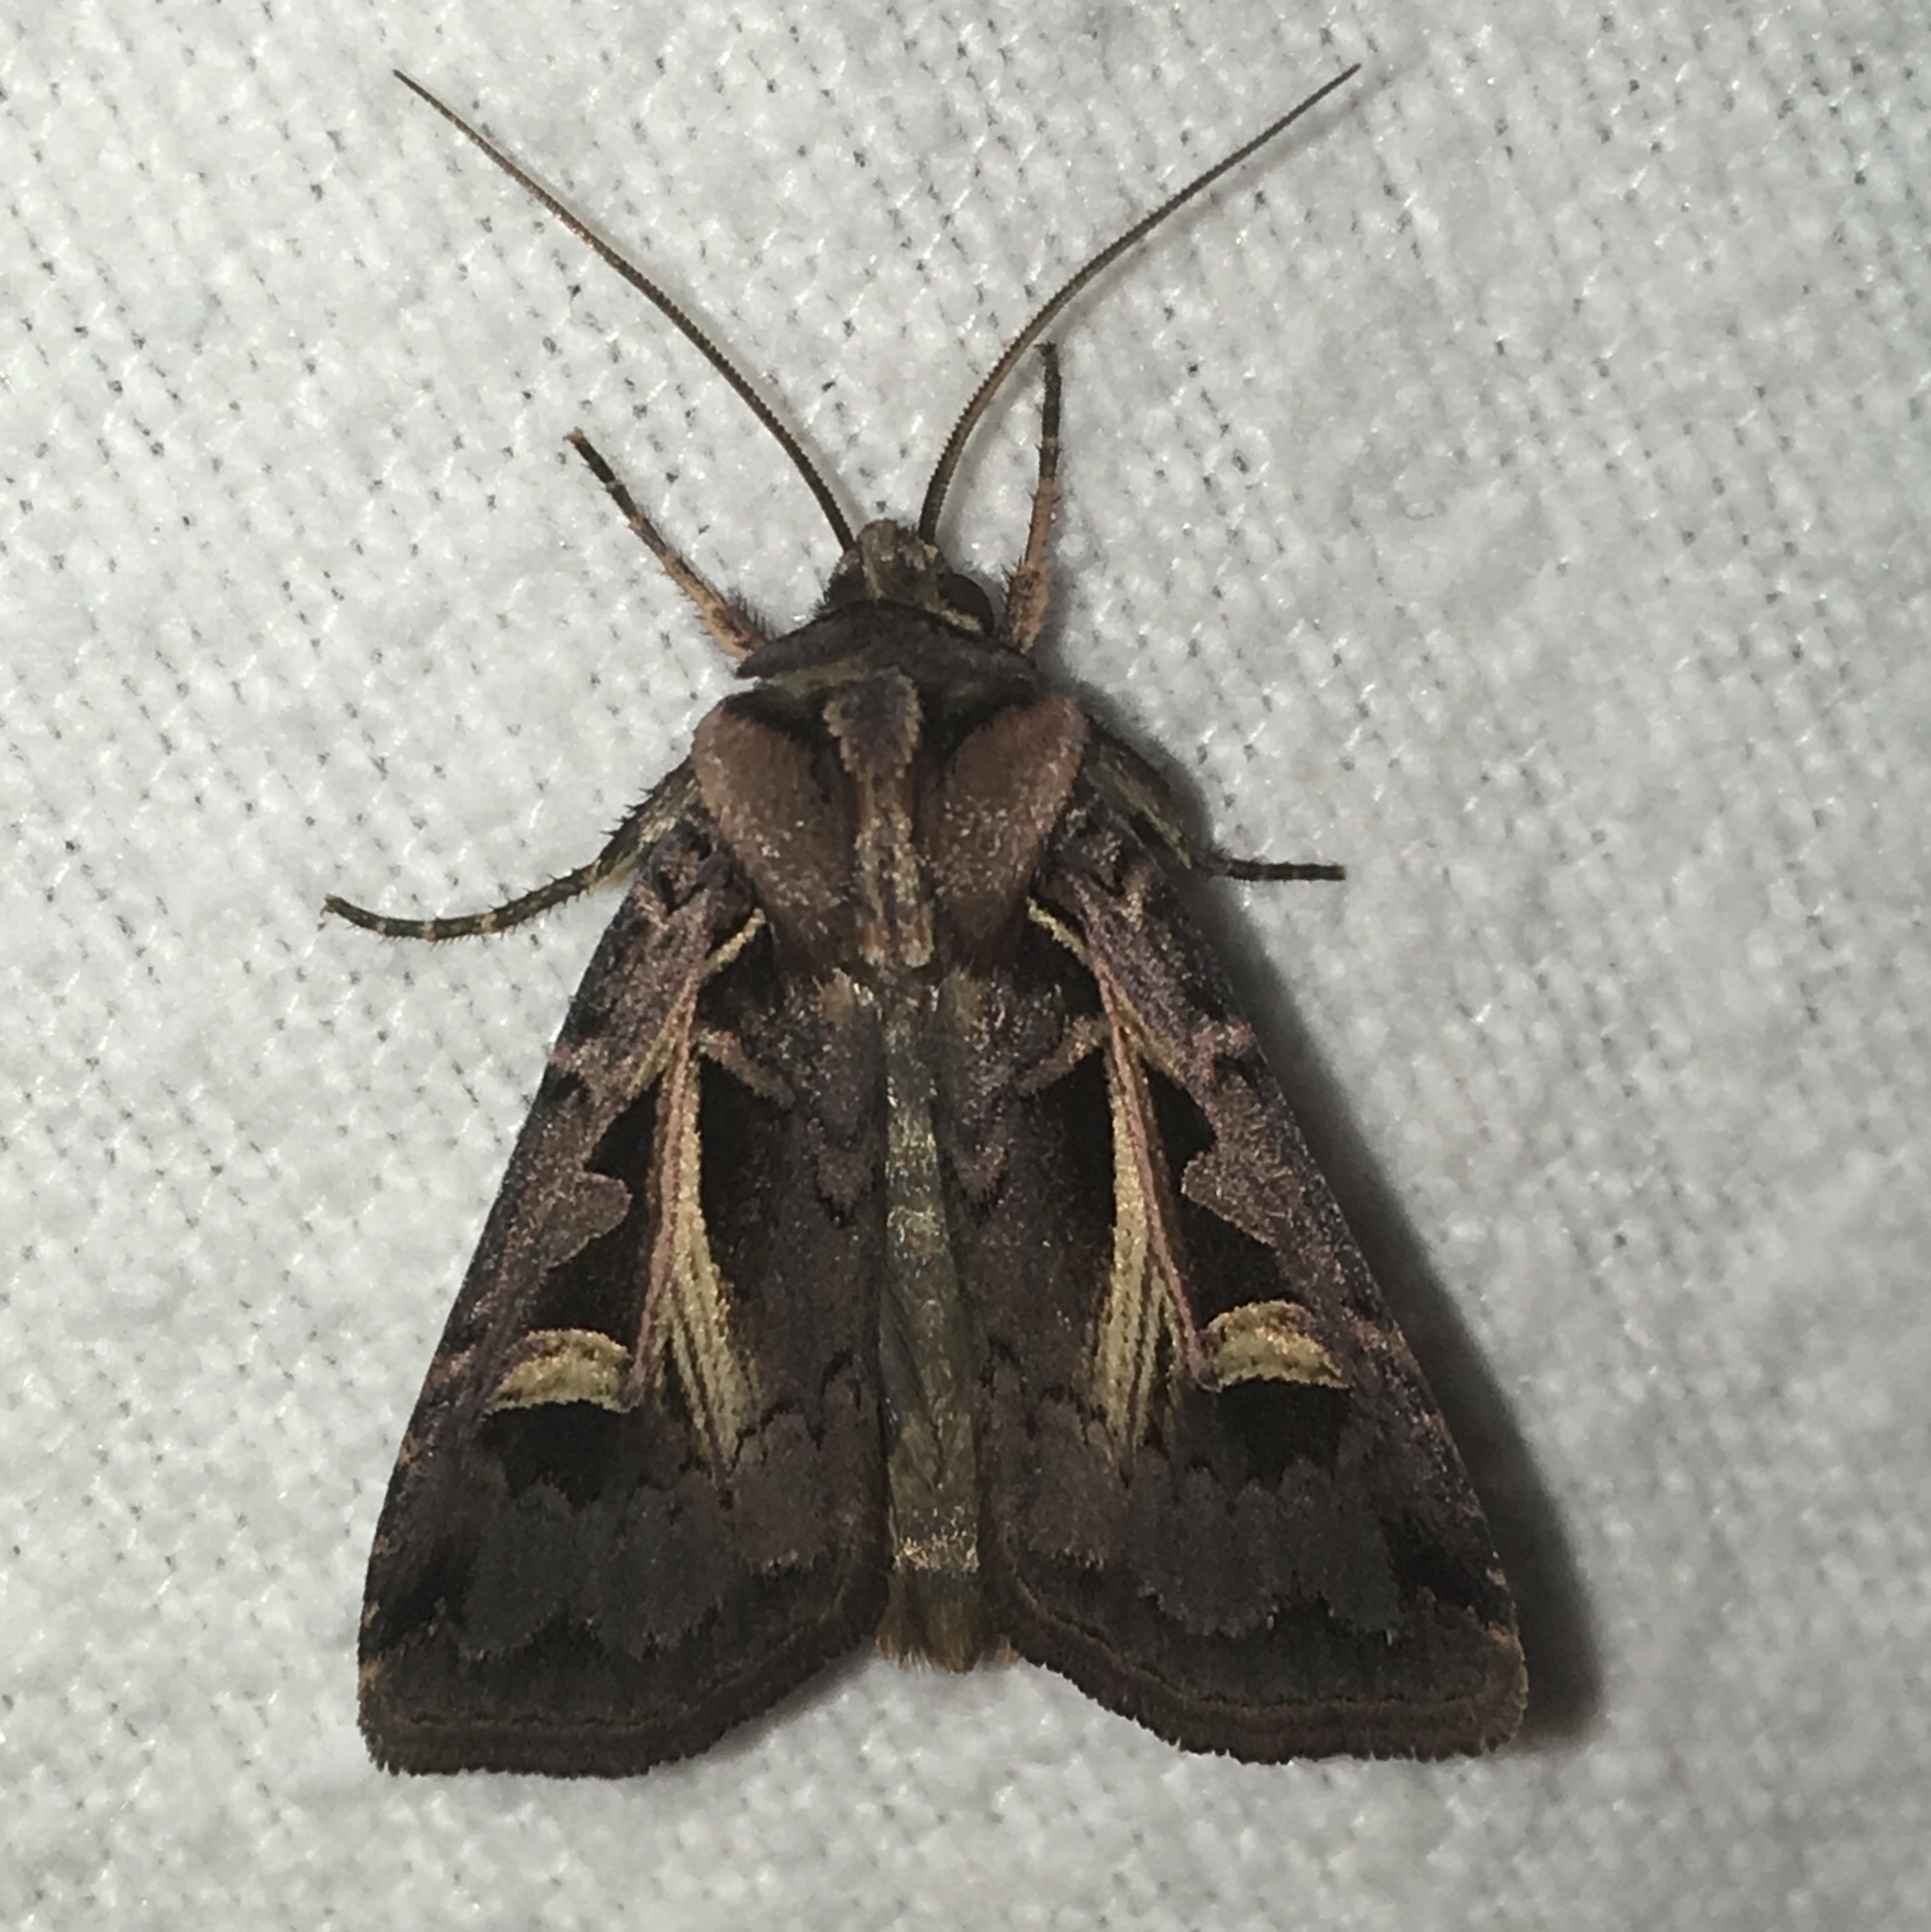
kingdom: Animalia
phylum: Arthropoda
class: Insecta
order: Lepidoptera
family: Noctuidae
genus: Feltia
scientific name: Feltia herilis
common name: Master's dart
